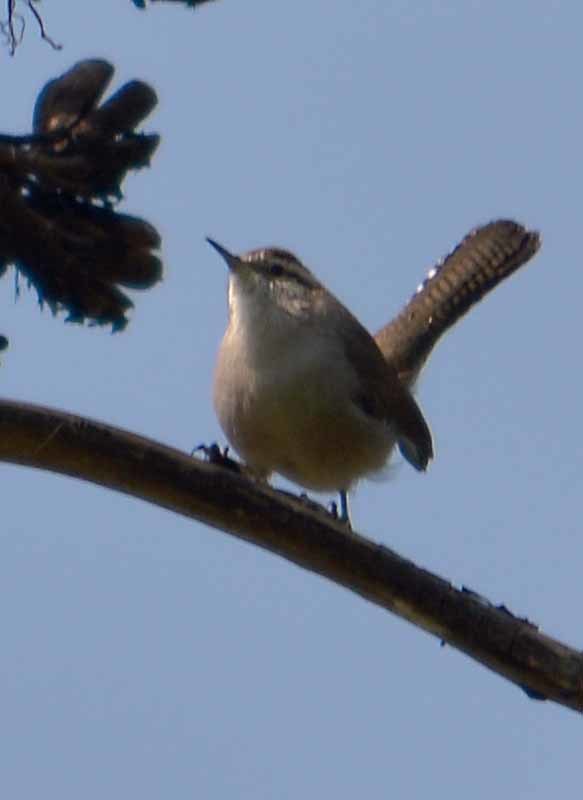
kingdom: Animalia
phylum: Chordata
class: Aves
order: Passeriformes
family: Troglodytidae
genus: Thryomanes
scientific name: Thryomanes bewickii
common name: Bewick's wren
